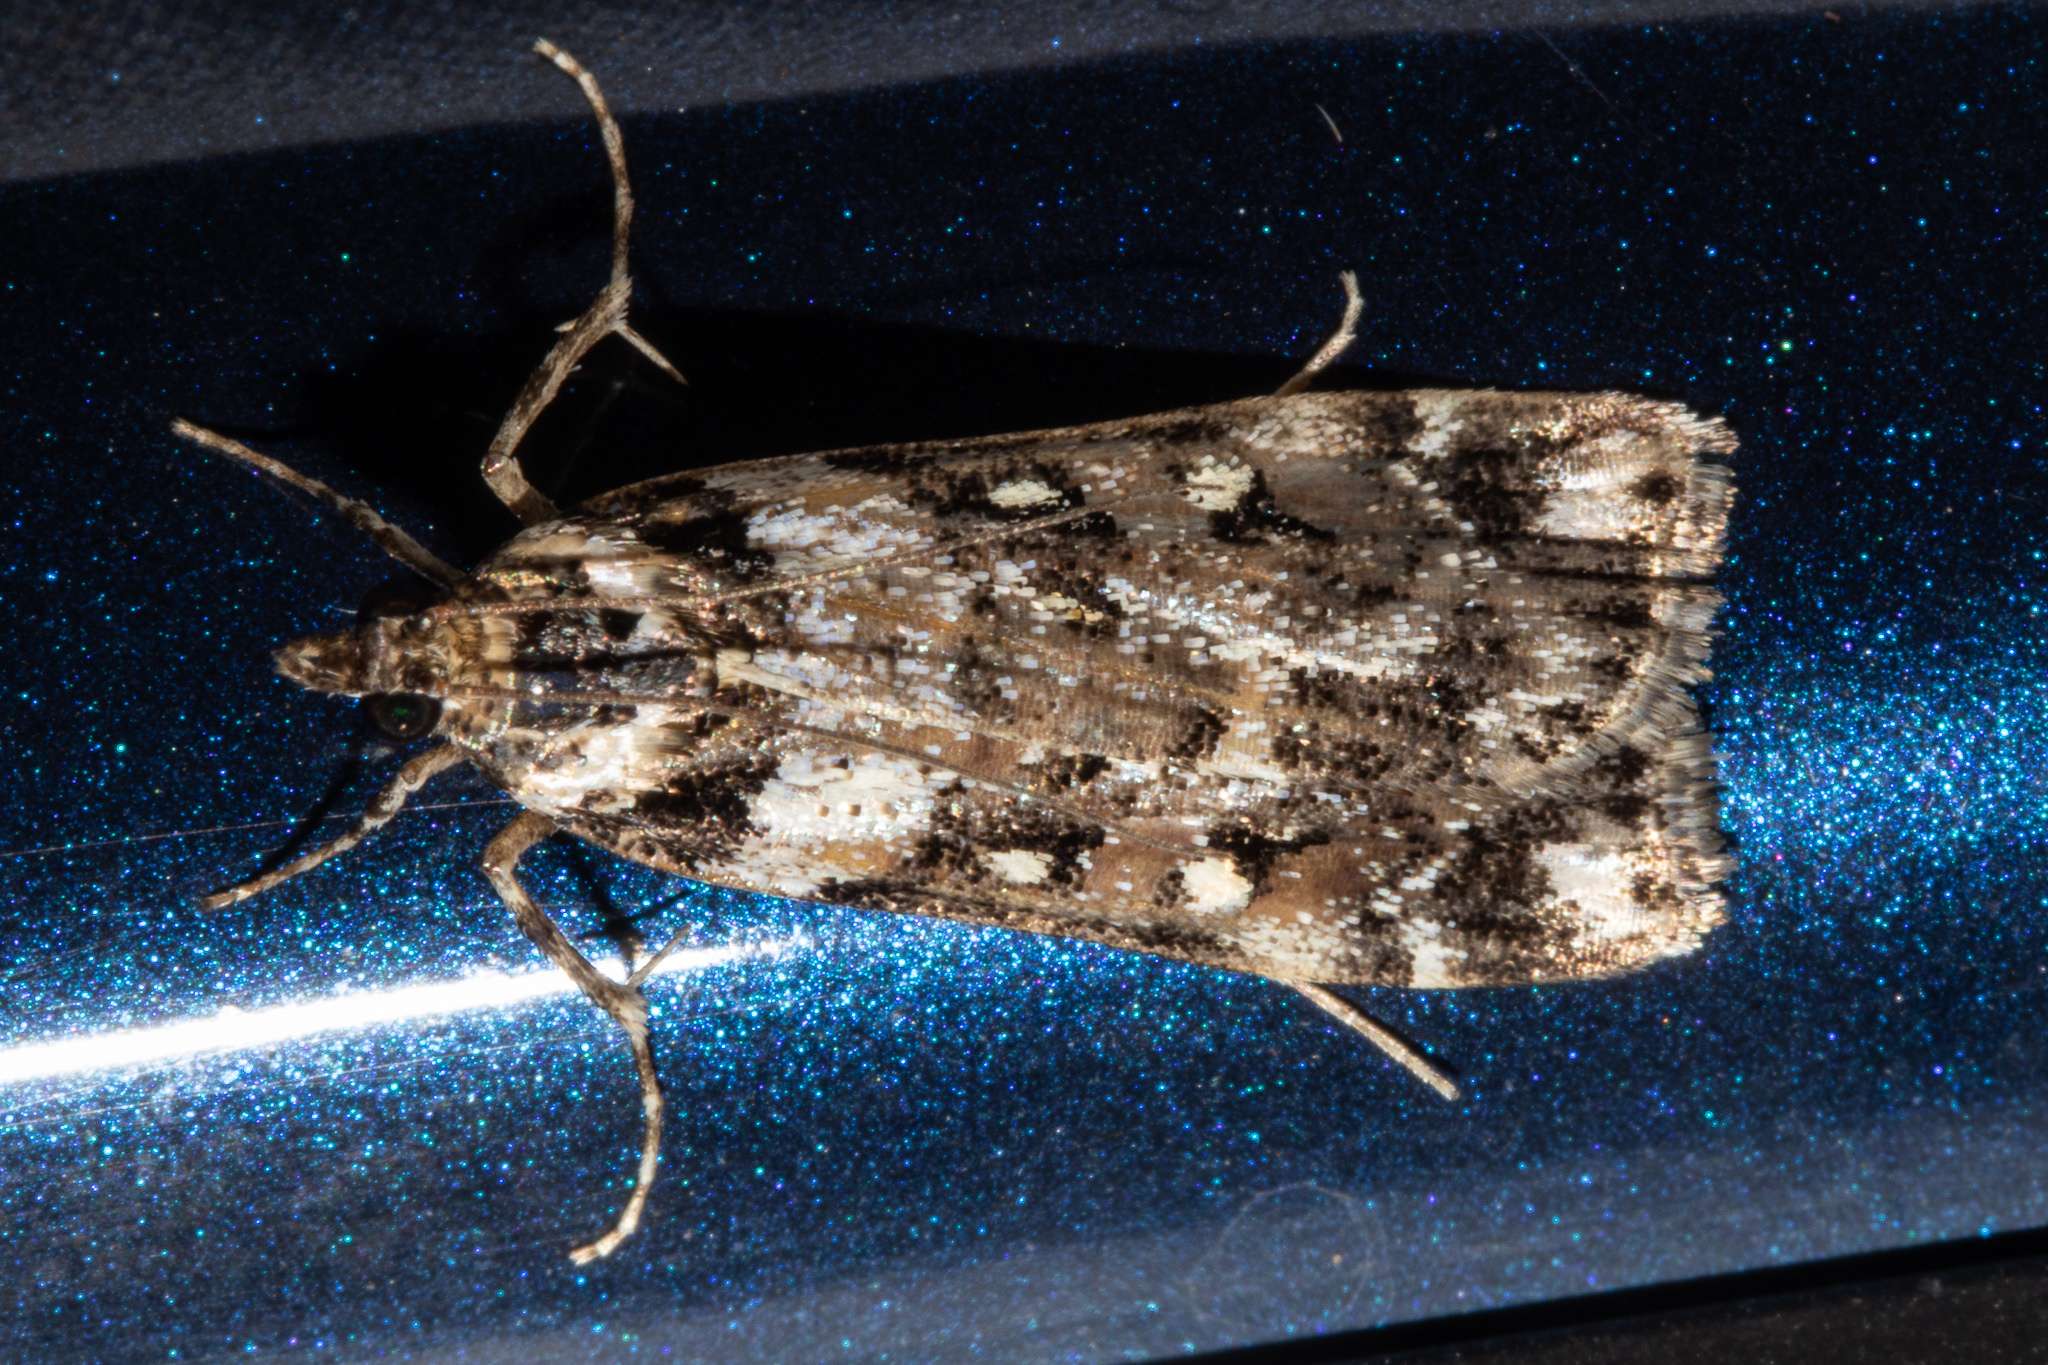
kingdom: Animalia
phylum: Arthropoda
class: Insecta
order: Lepidoptera
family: Crambidae
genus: Eudonia
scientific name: Eudonia diphtheralis
